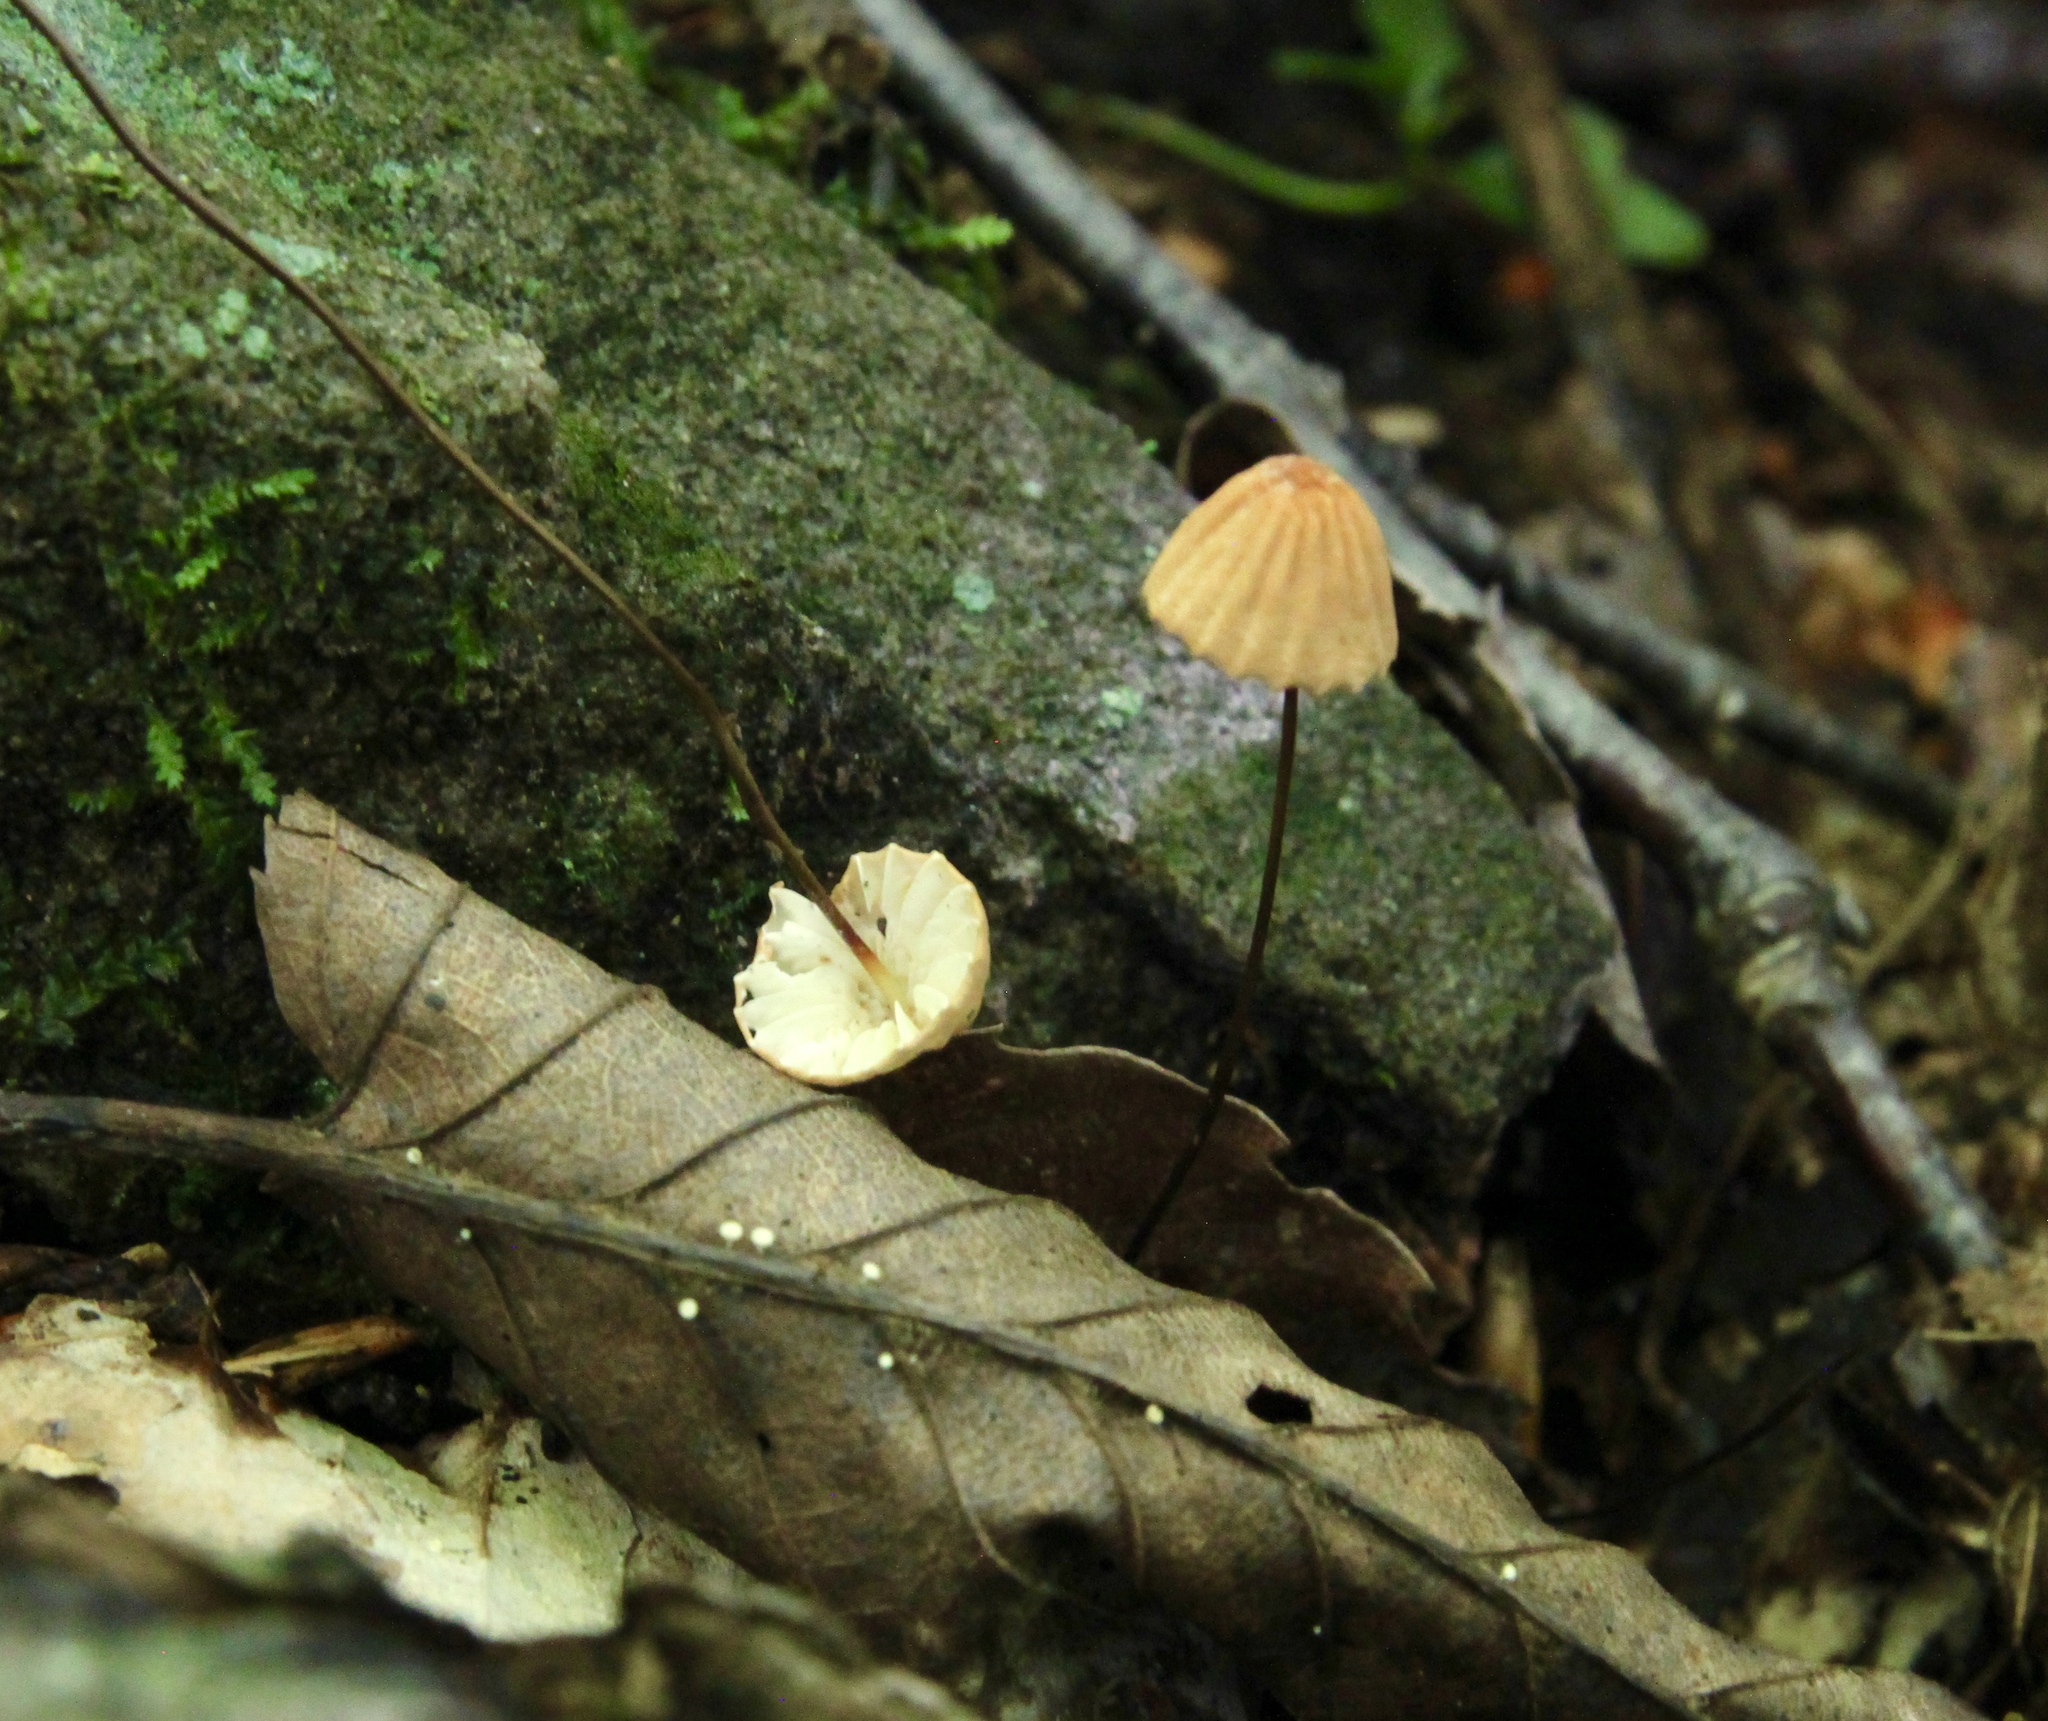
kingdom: Fungi
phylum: Basidiomycota
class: Agaricomycetes
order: Agaricales
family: Marasmiaceae
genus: Marasmius
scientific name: Marasmius siccus
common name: Orange pinwheel
